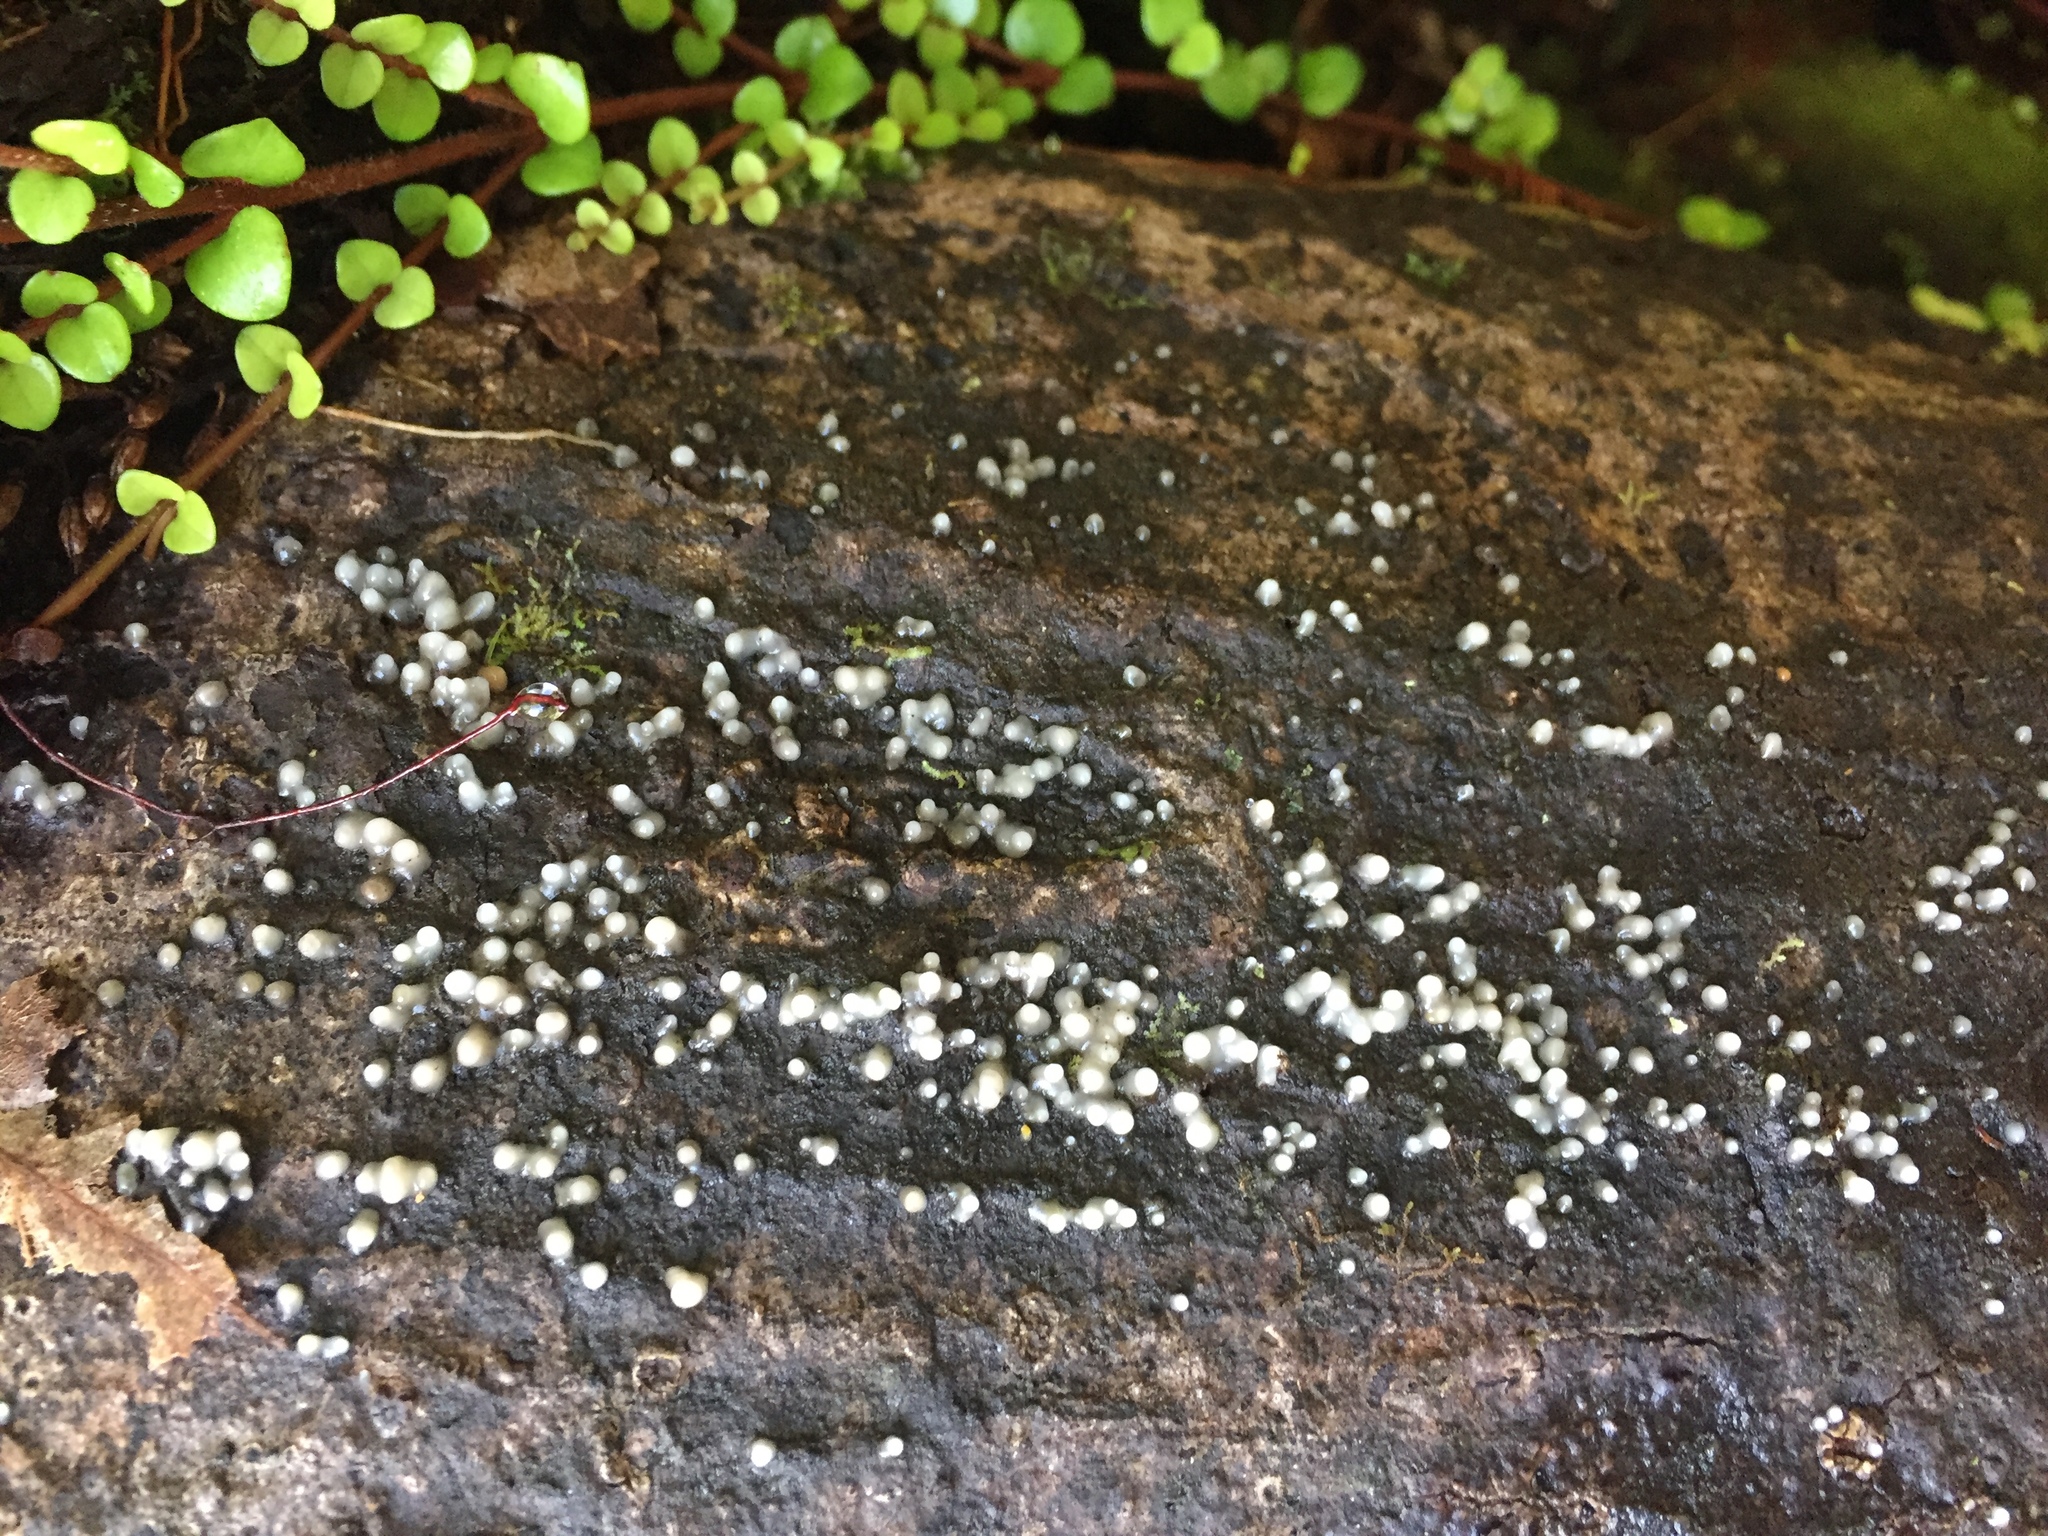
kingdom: Fungi
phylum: Basidiomycota
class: Atractiellomycetes
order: Atractiellales
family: Phleogenaceae
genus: Helicogloea
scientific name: Helicogloea compressa
